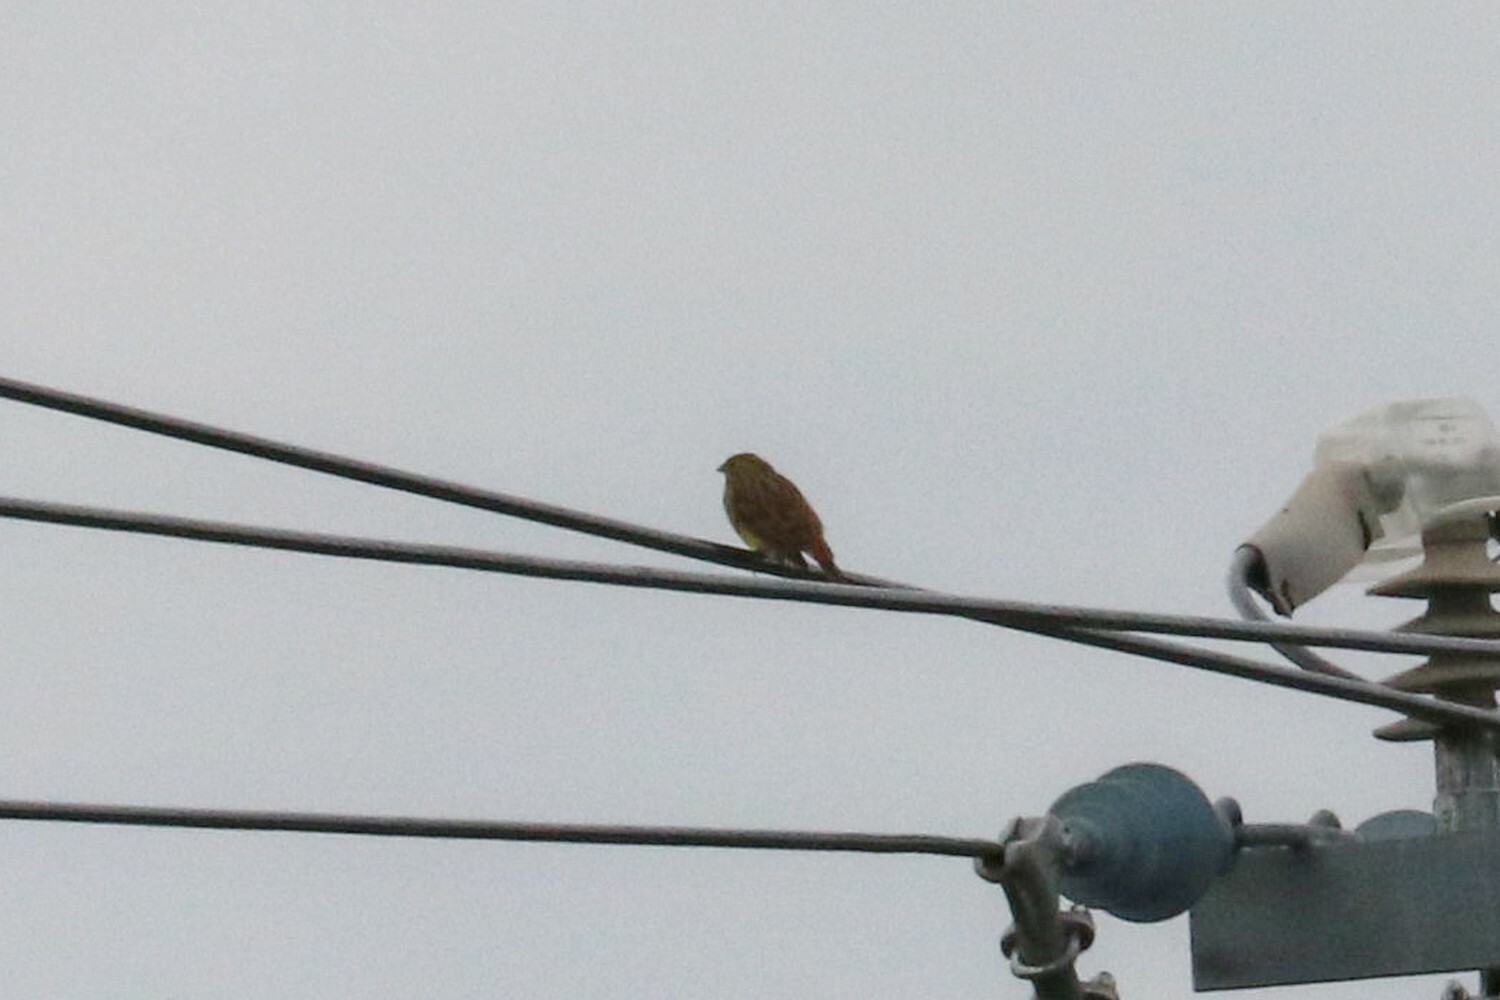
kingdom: Animalia
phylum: Chordata
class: Aves
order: Passeriformes
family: Emberizidae
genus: Emberiza
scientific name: Emberiza citrinella
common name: Yellowhammer
